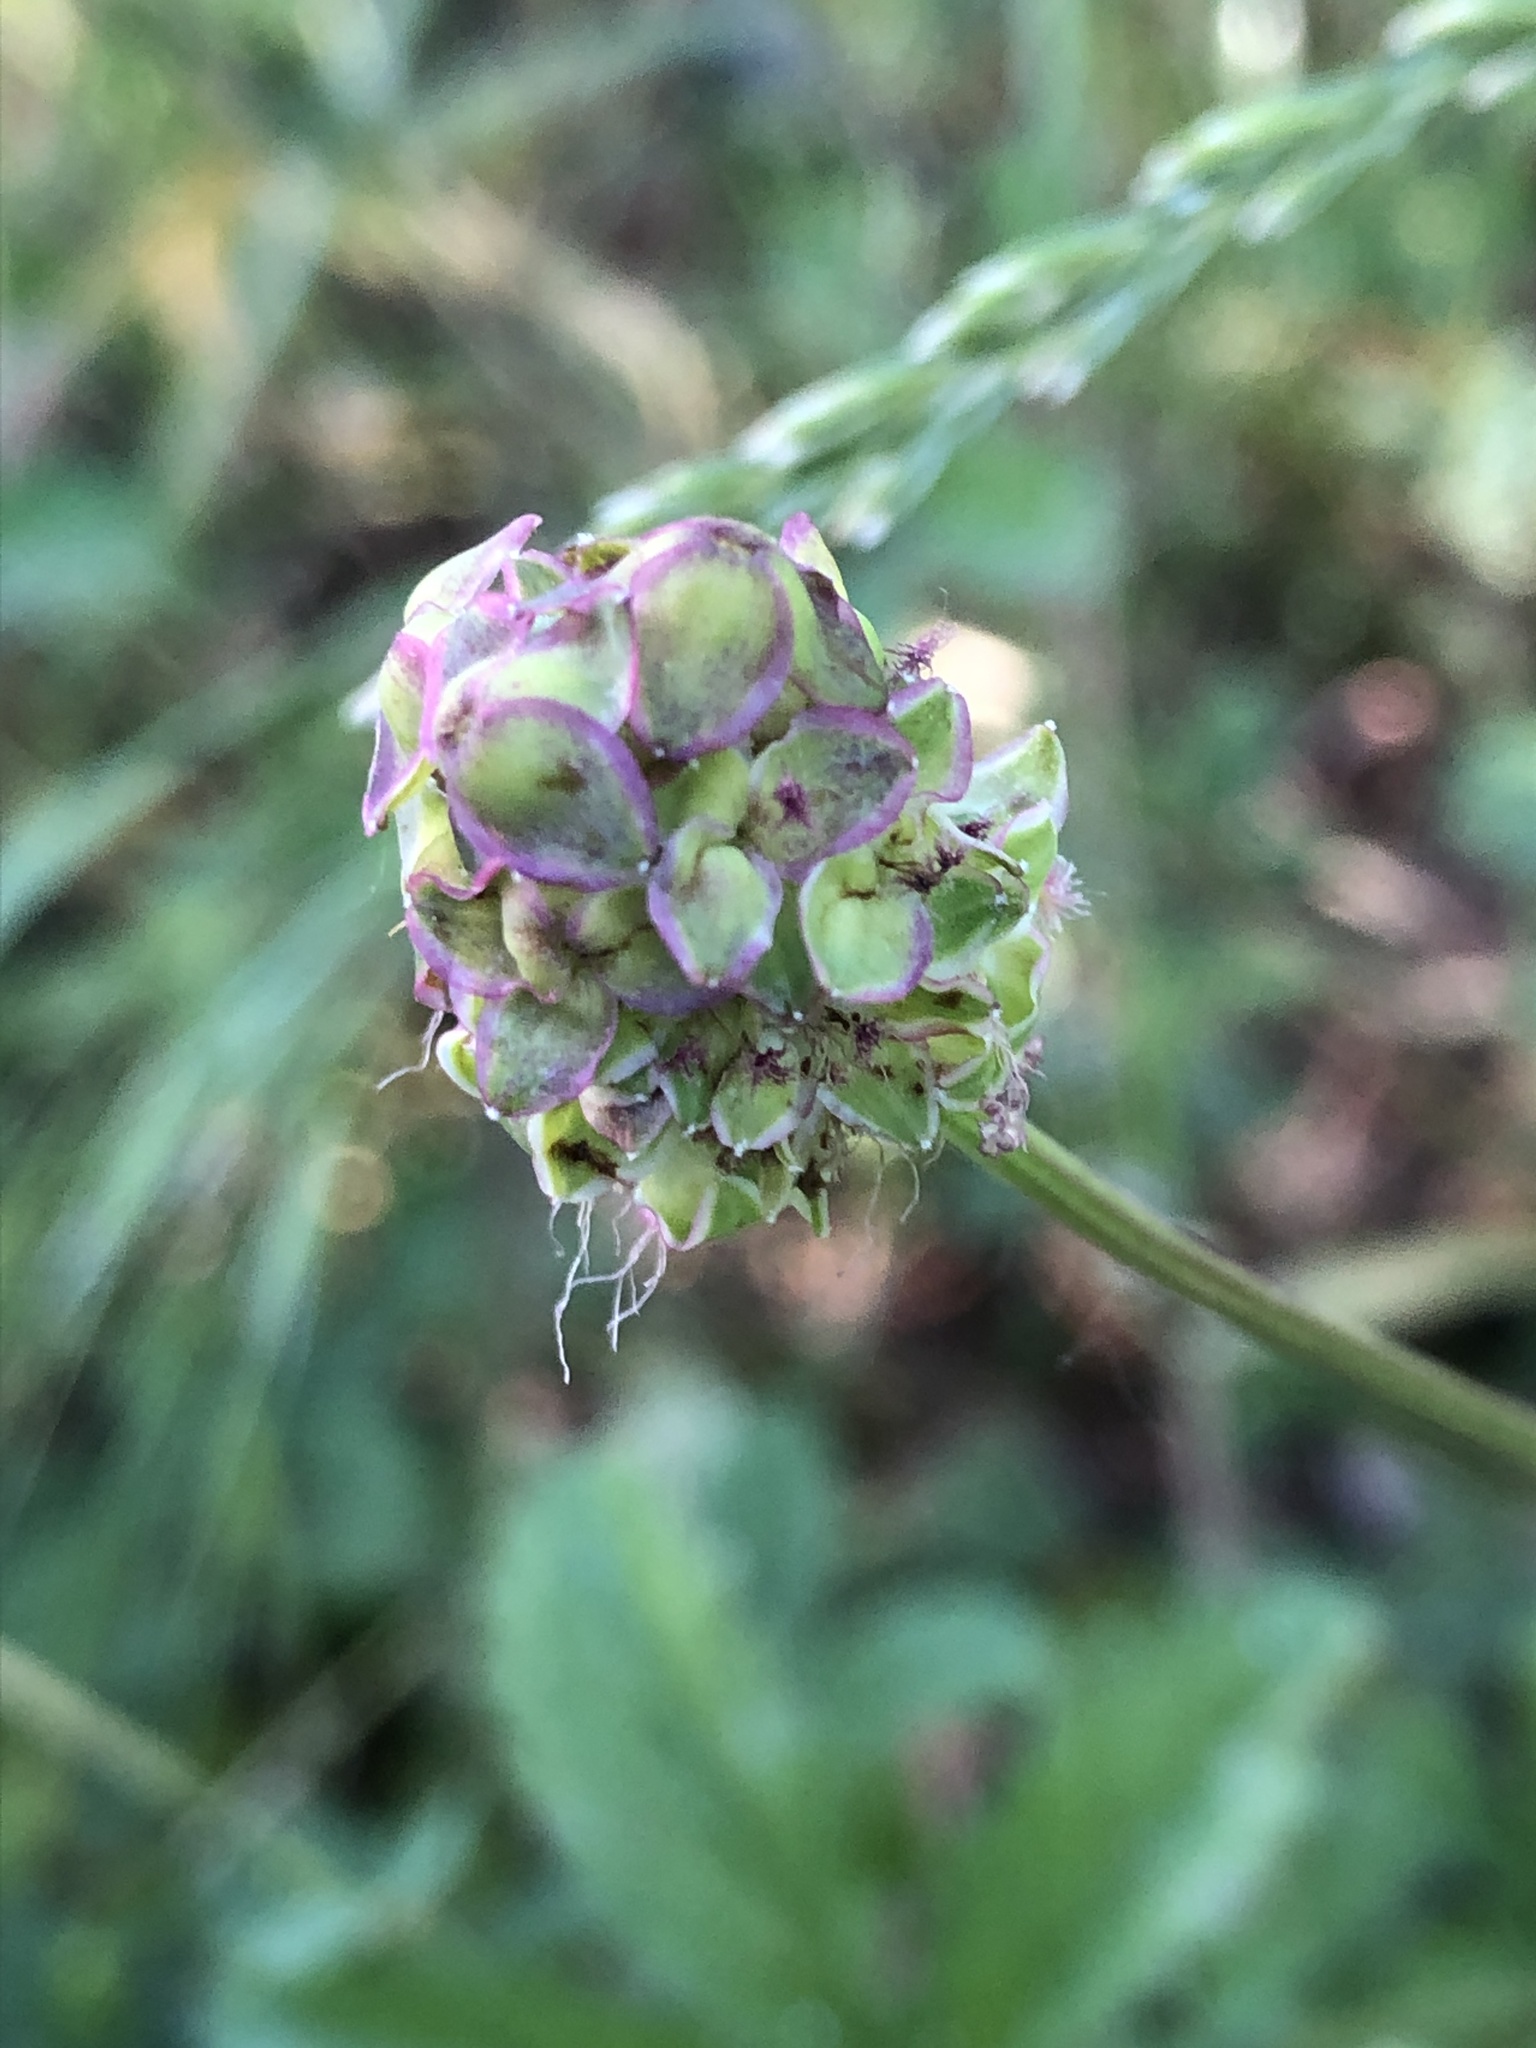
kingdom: Plantae
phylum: Tracheophyta
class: Magnoliopsida
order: Rosales
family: Rosaceae
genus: Poterium
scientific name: Poterium sanguisorba
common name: Salad burnet
